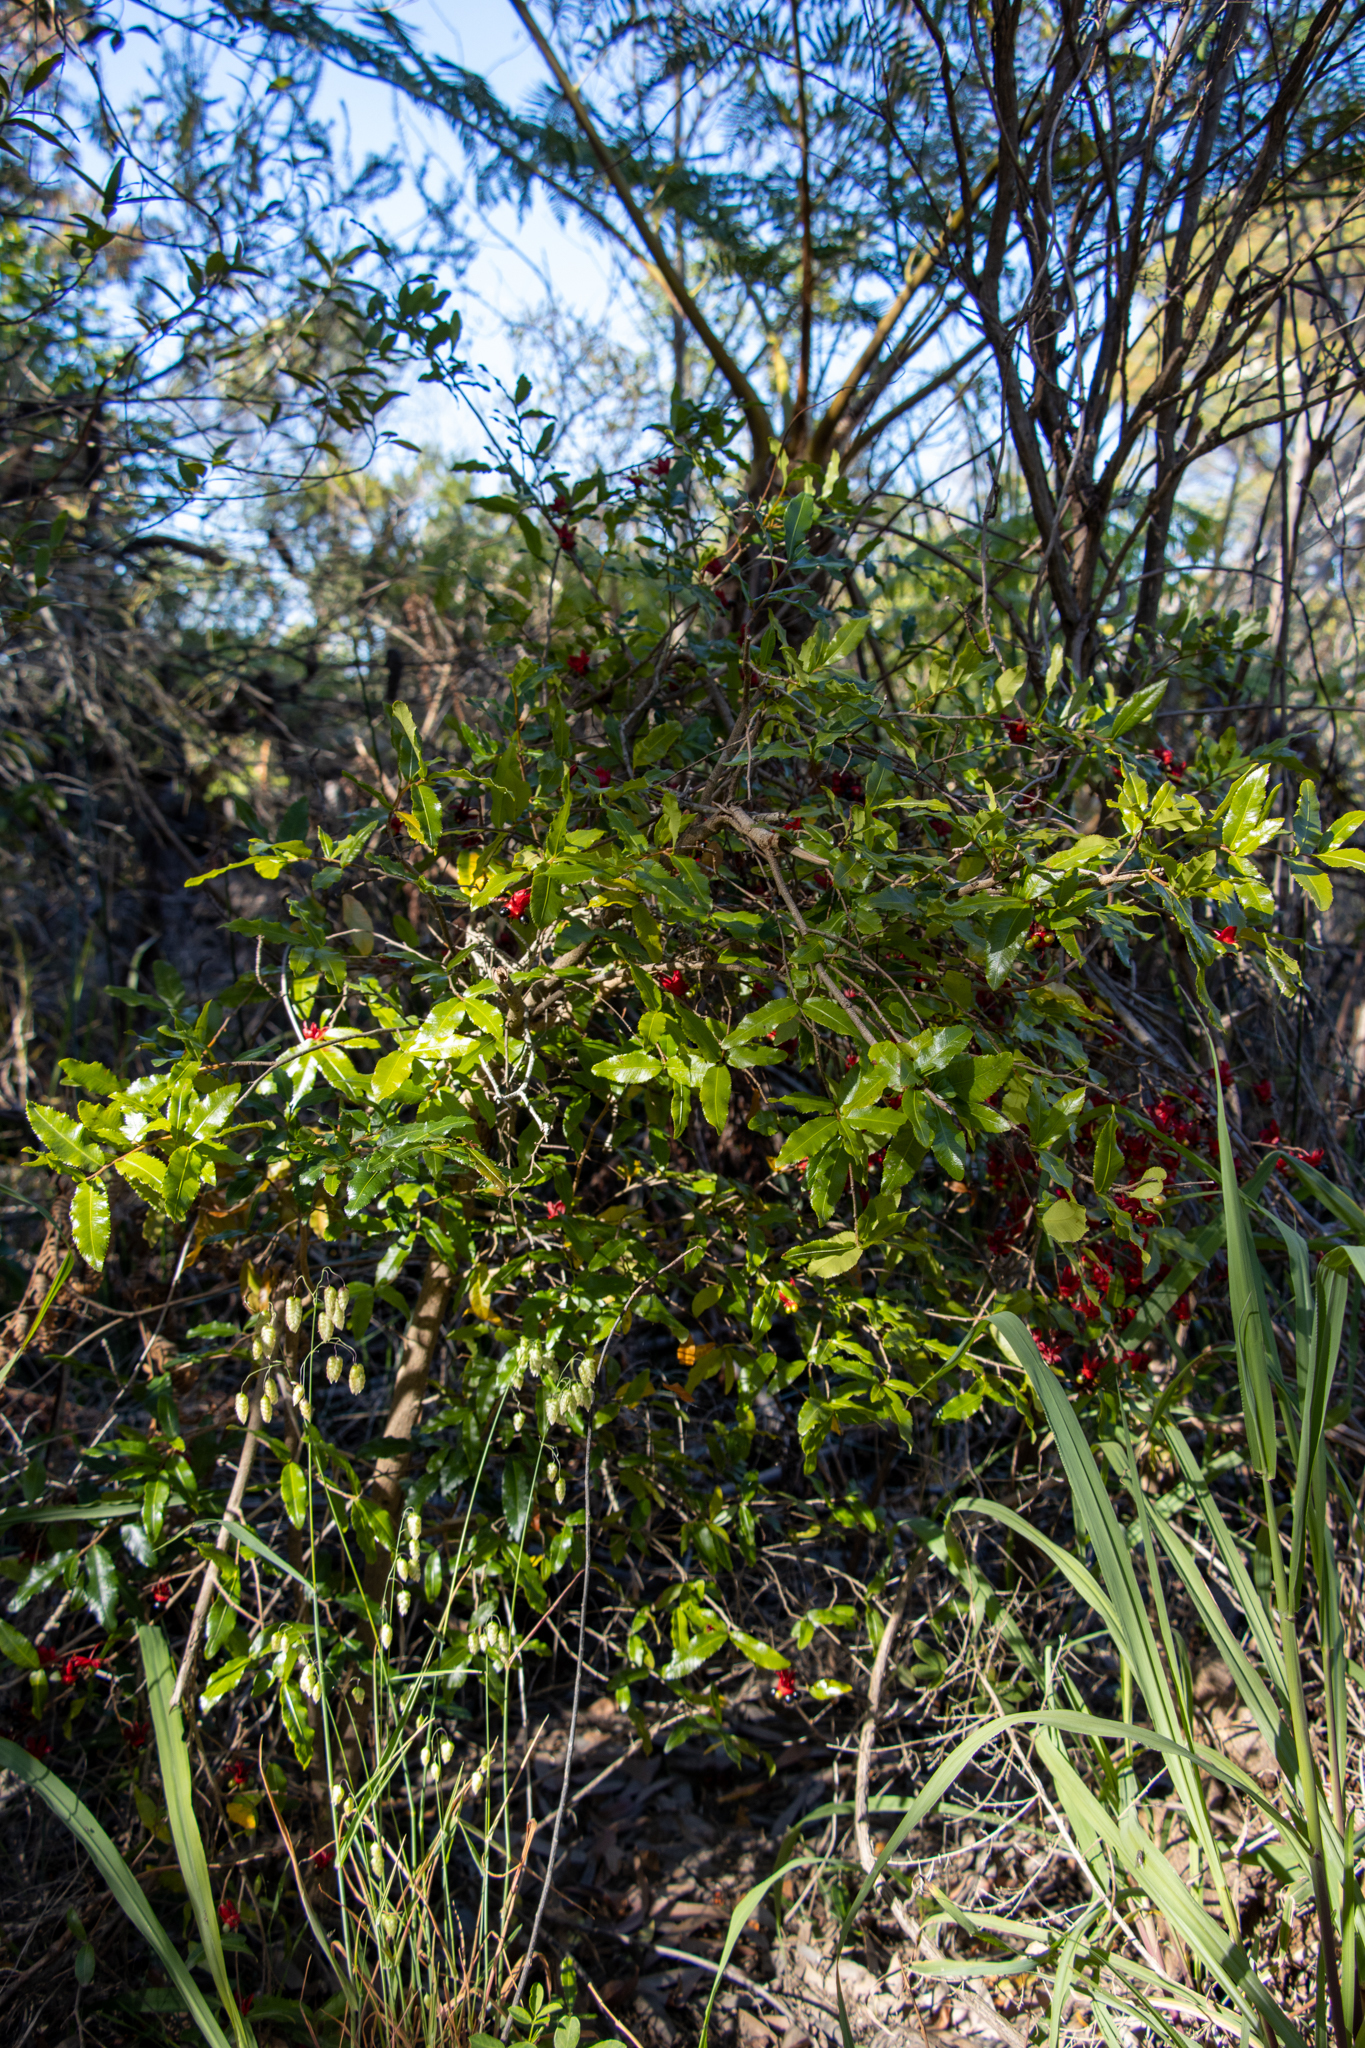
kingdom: Plantae
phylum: Tracheophyta
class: Magnoliopsida
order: Malpighiales
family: Ochnaceae
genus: Ochna
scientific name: Ochna serrulata
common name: Mickey mouse plant
